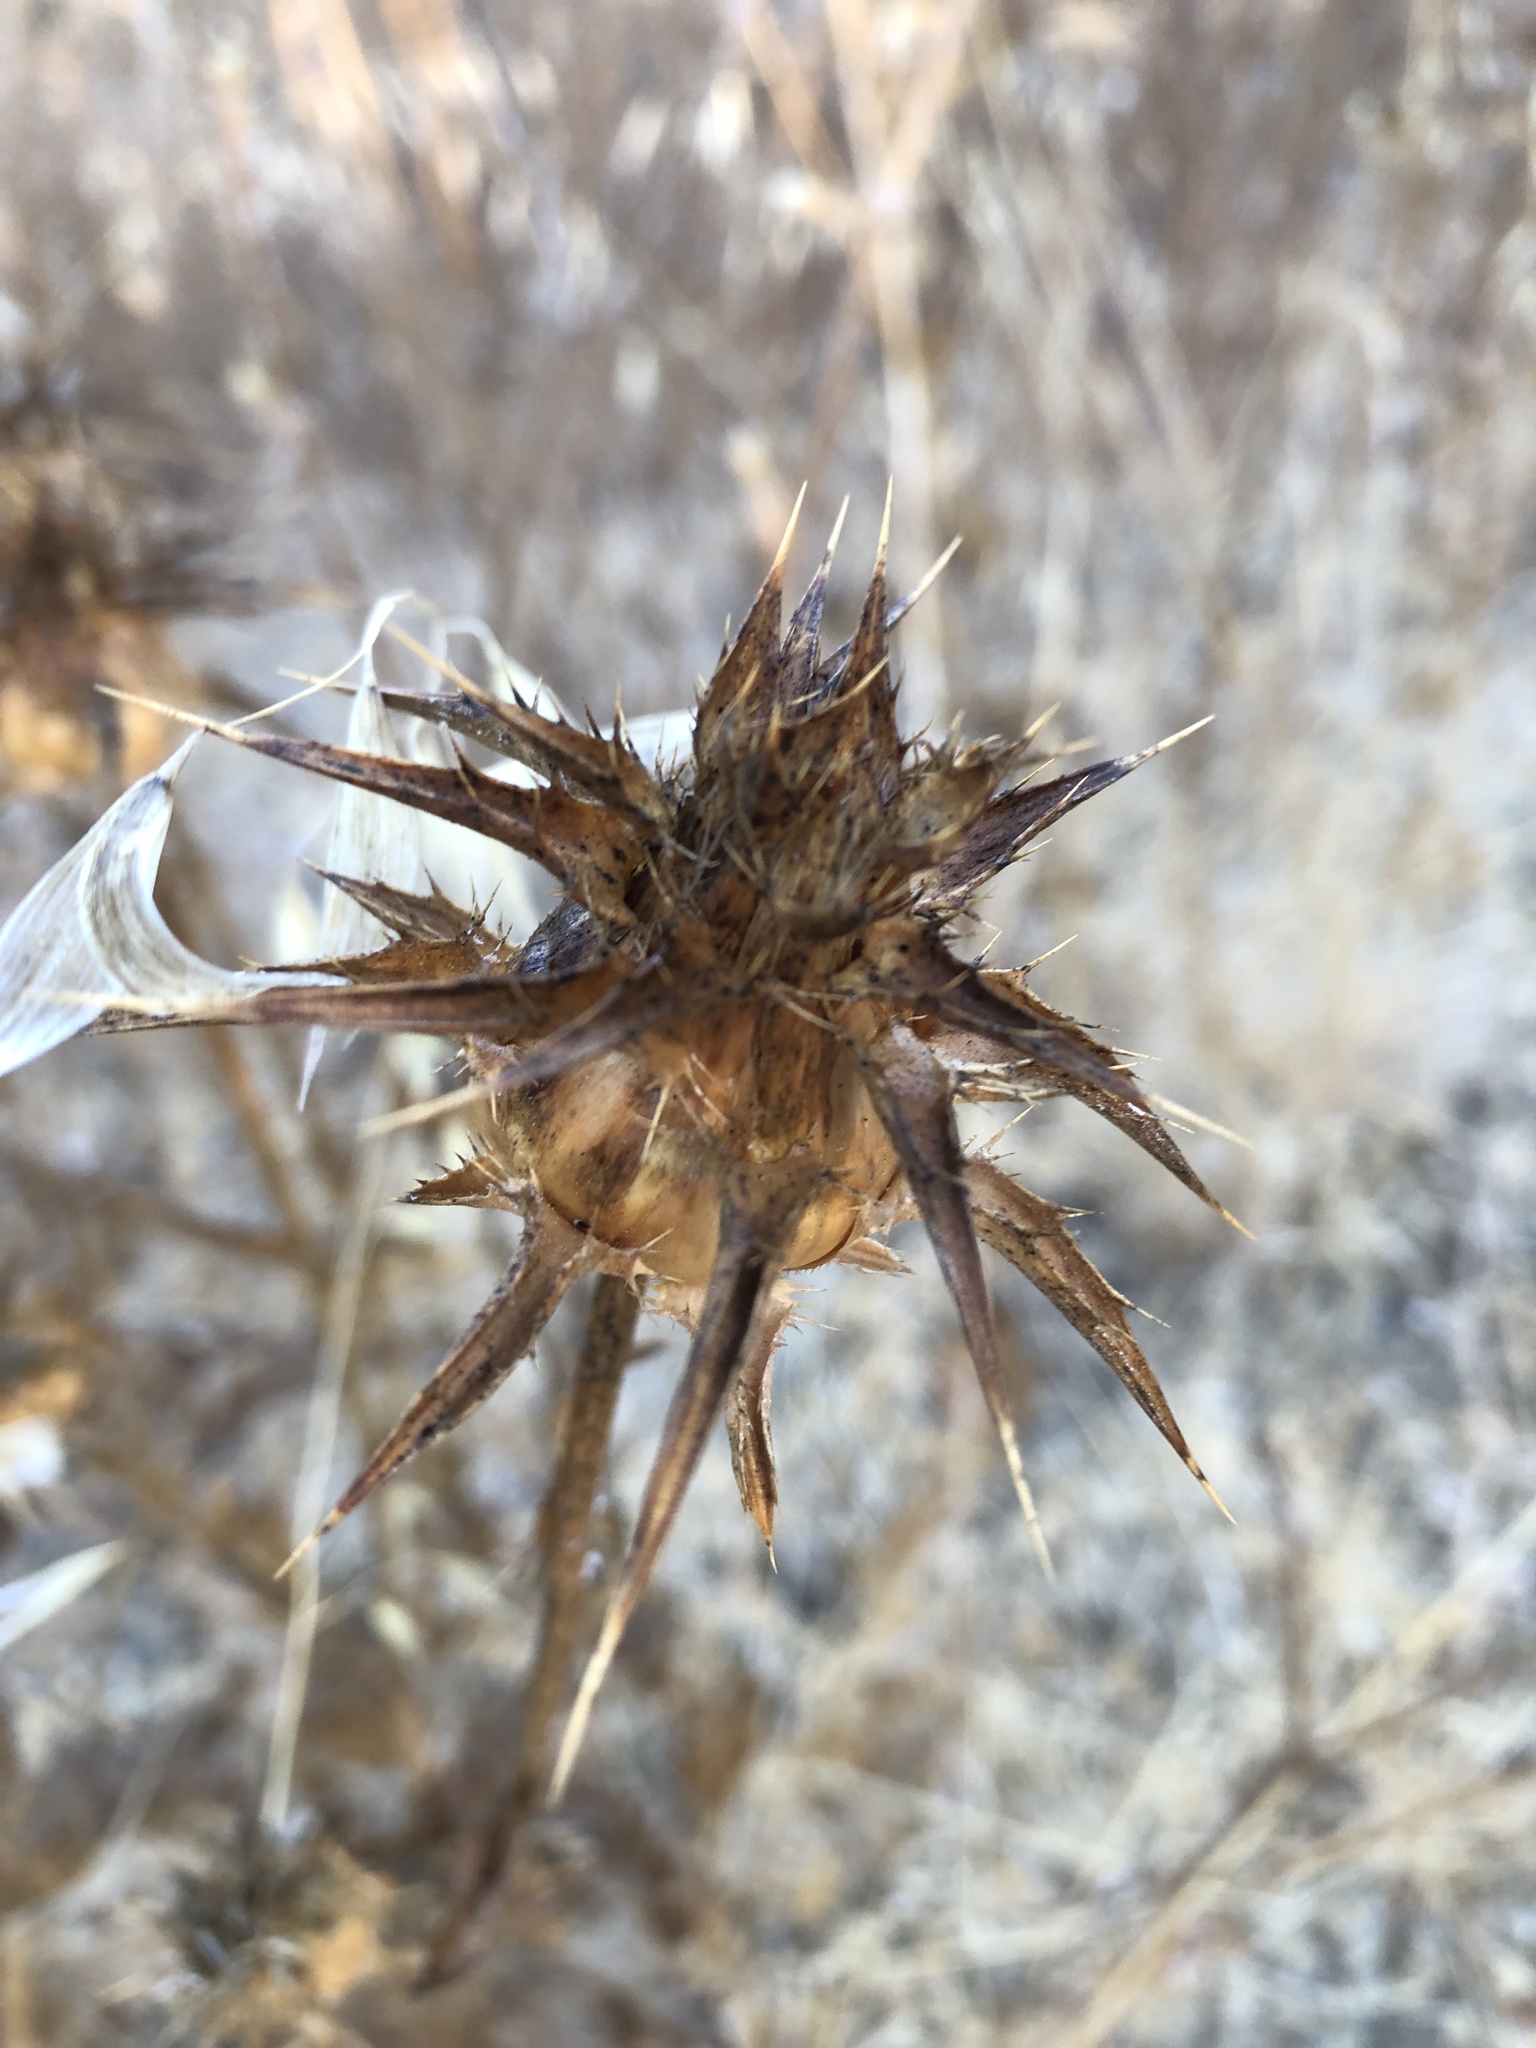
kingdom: Plantae
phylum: Tracheophyta
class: Magnoliopsida
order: Asterales
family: Asteraceae
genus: Silybum
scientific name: Silybum marianum
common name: Milk thistle
